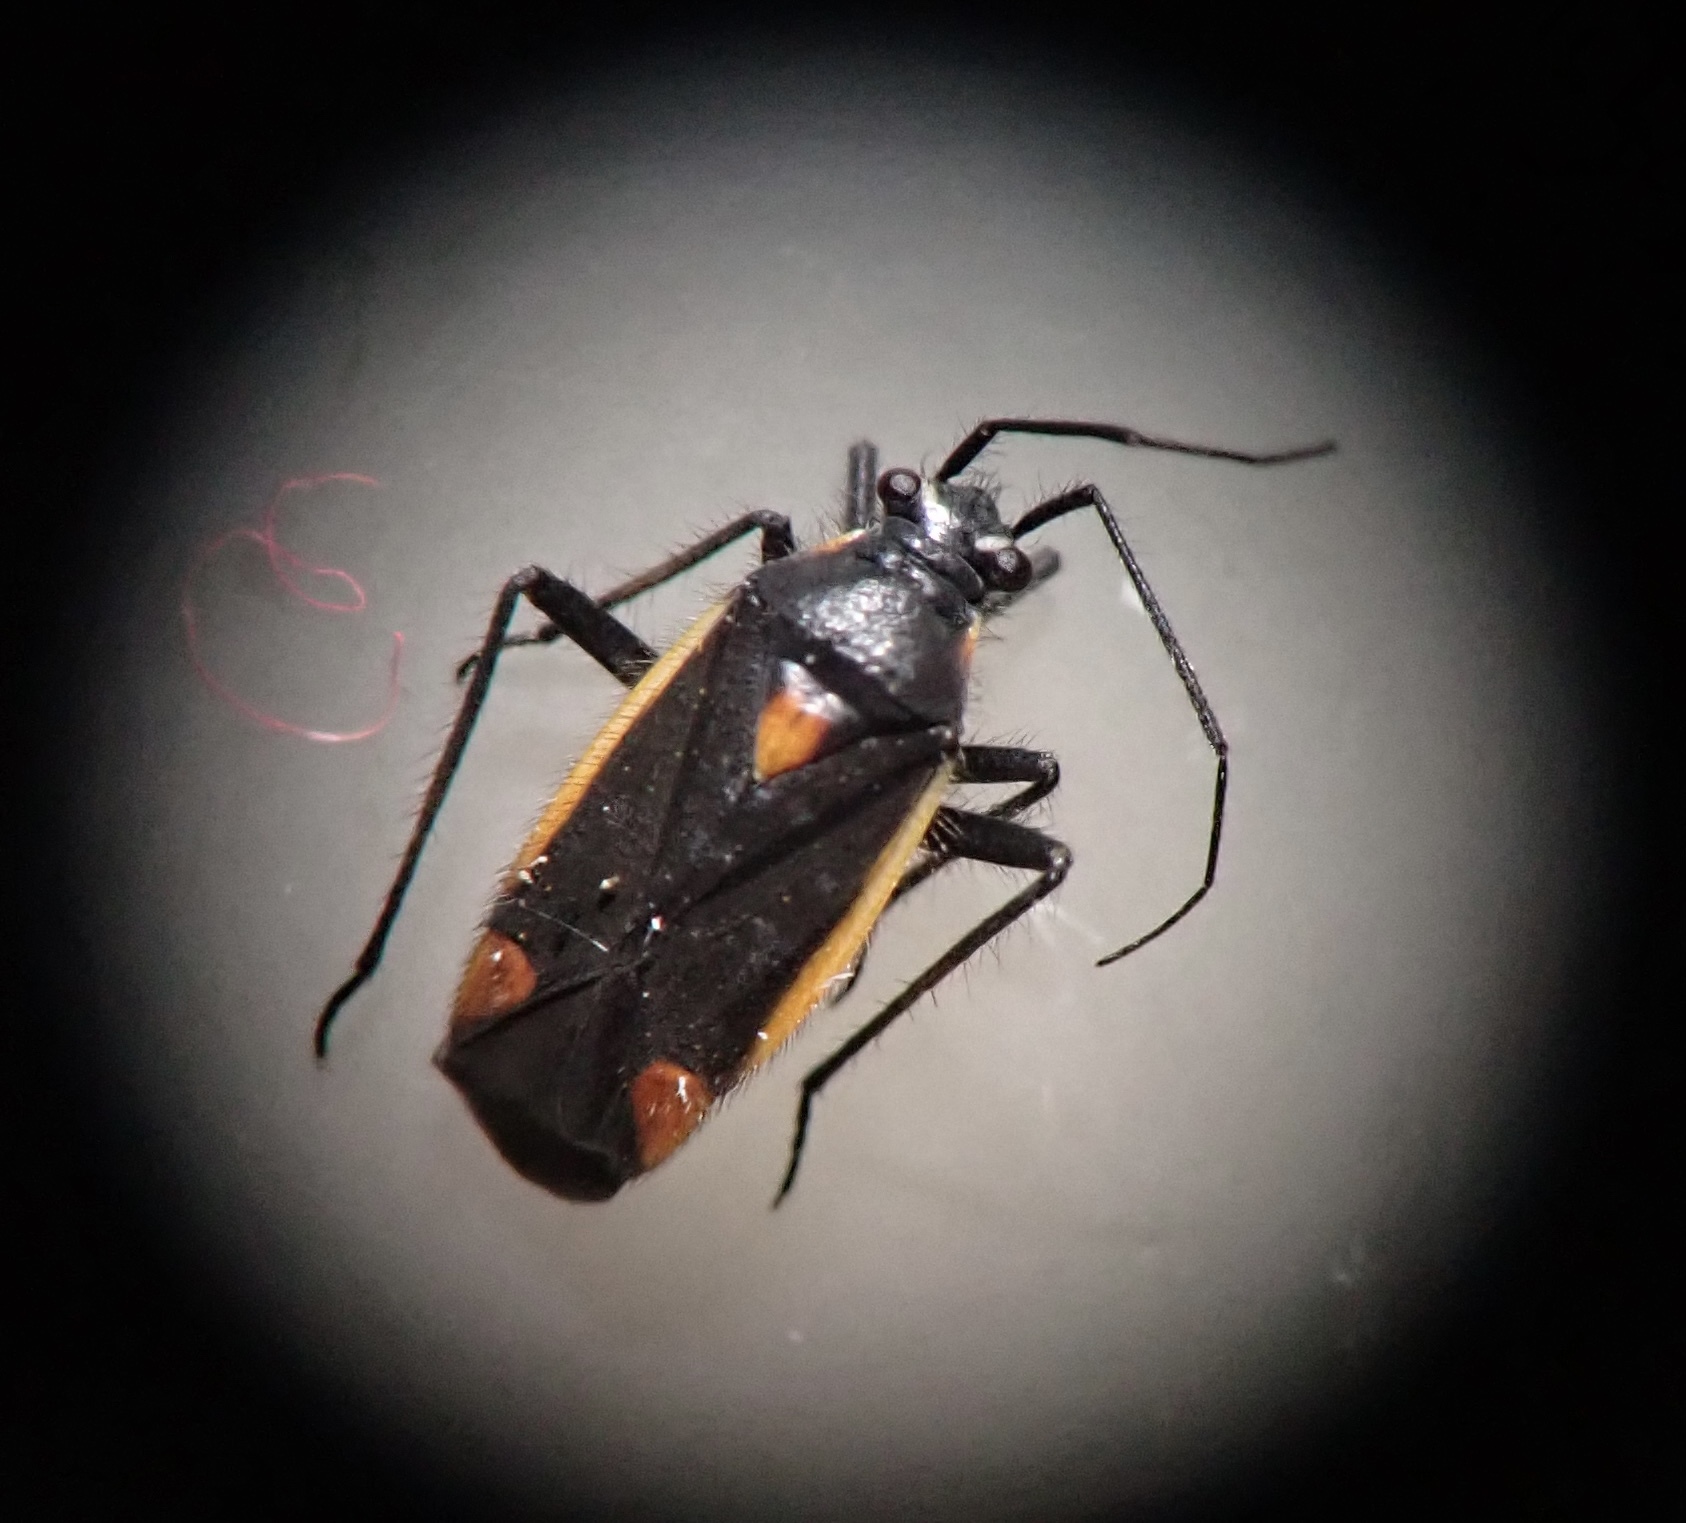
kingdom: Animalia
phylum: Arthropoda
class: Insecta
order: Hemiptera
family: Miridae
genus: Capsodes
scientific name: Capsodes gothicus
